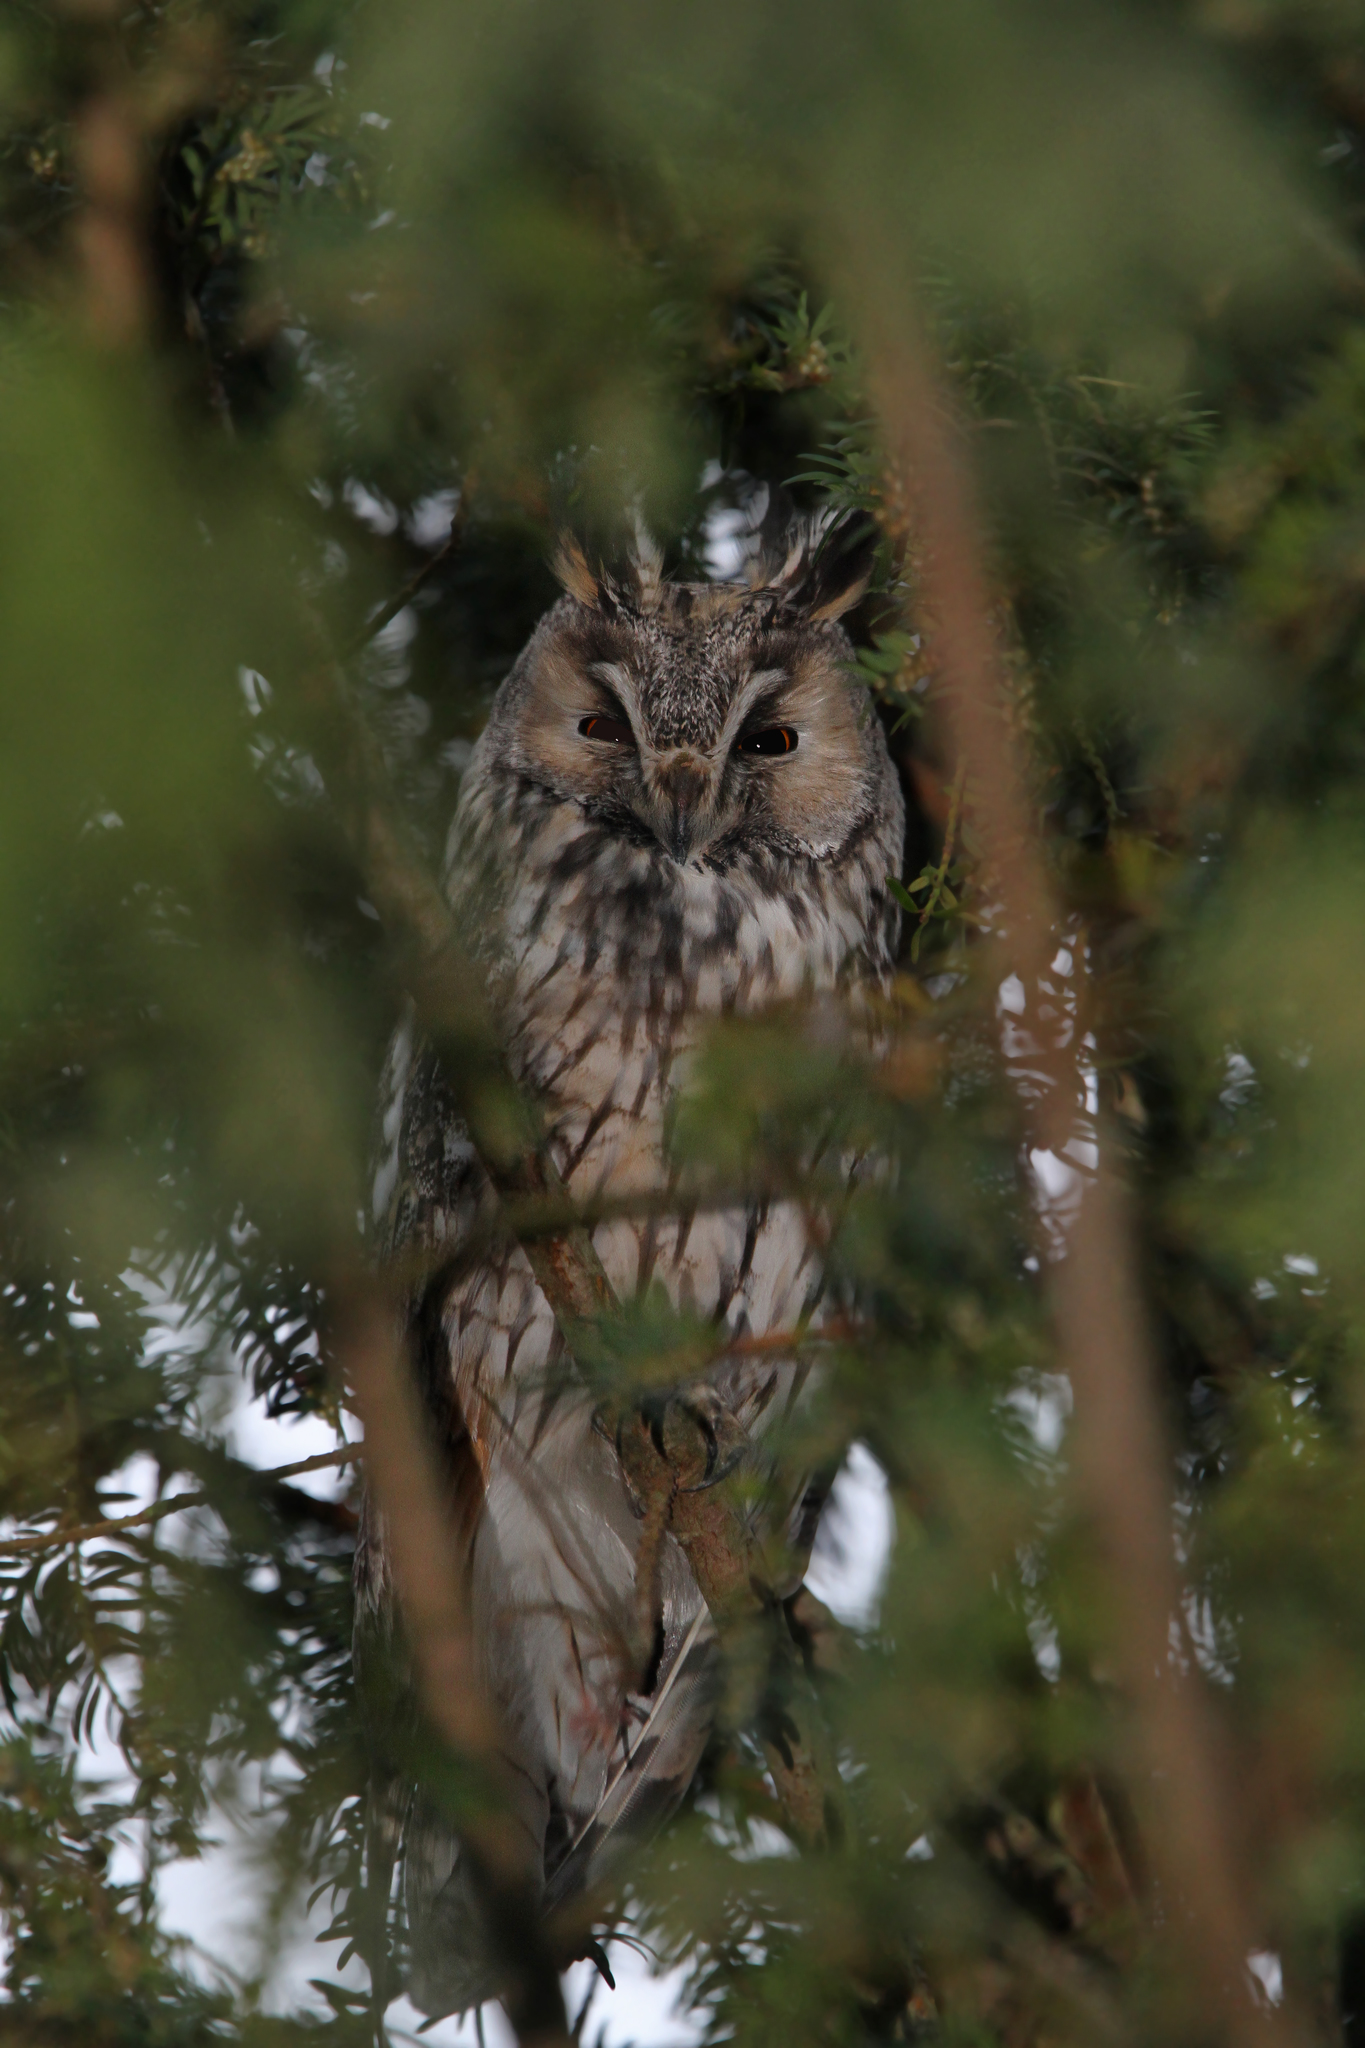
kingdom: Animalia
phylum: Chordata
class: Aves
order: Strigiformes
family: Strigidae
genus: Asio
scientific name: Asio otus
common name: Long-eared owl
